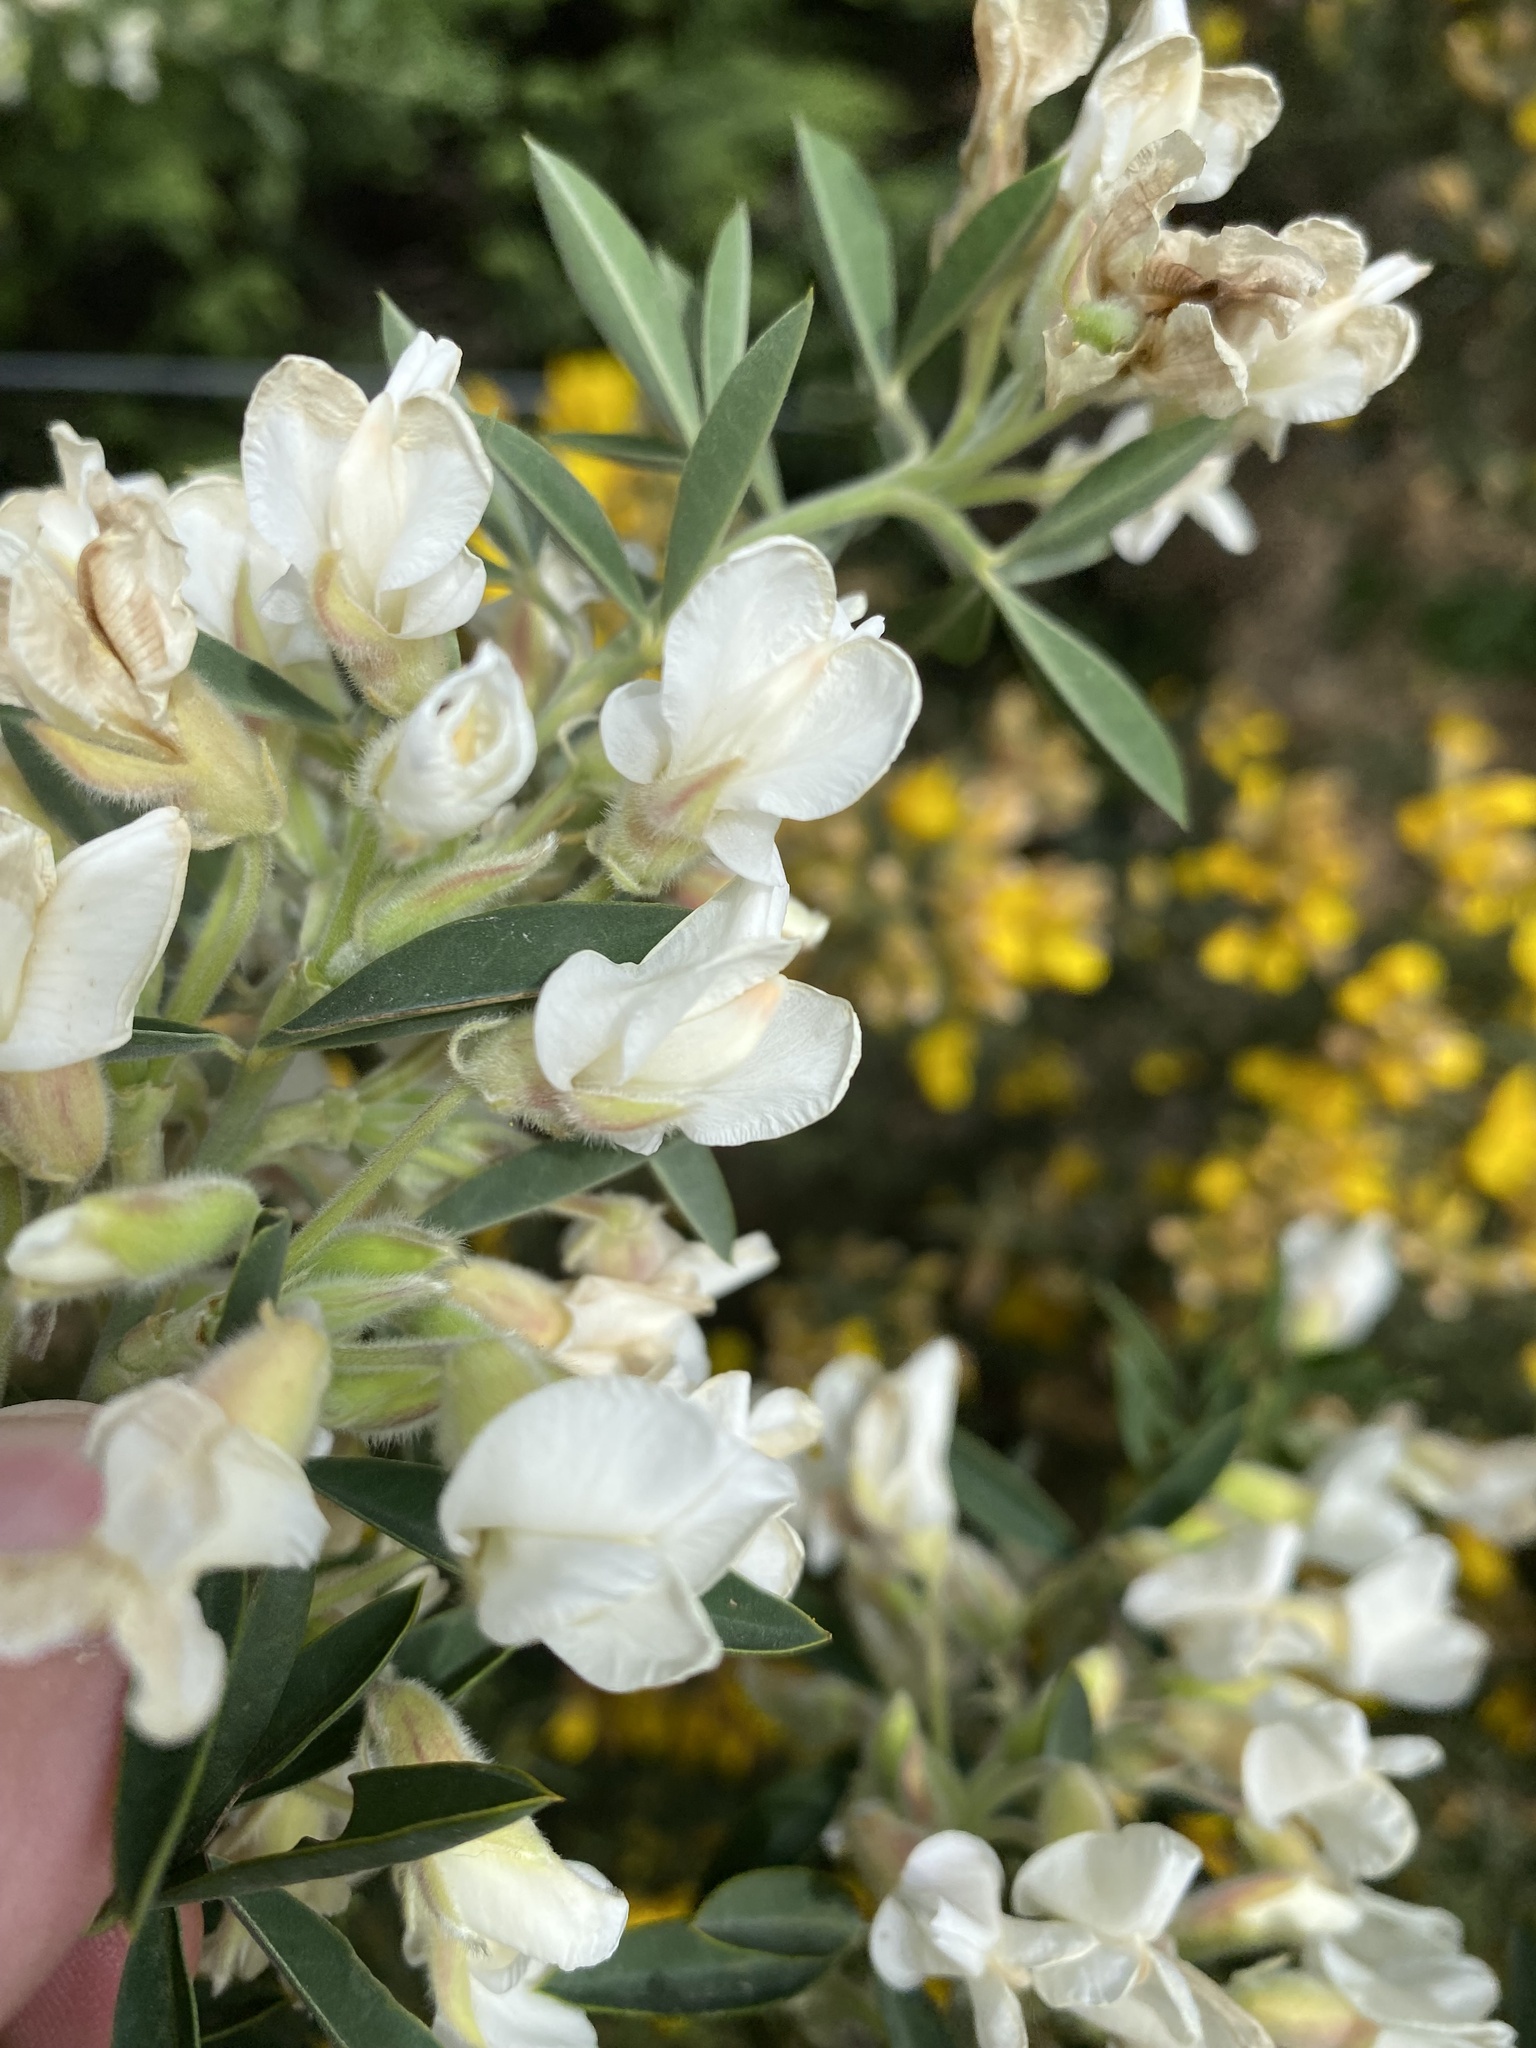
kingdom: Plantae
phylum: Tracheophyta
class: Magnoliopsida
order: Fabales
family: Fabaceae
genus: Chamaecytisus
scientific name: Chamaecytisus prolifer
